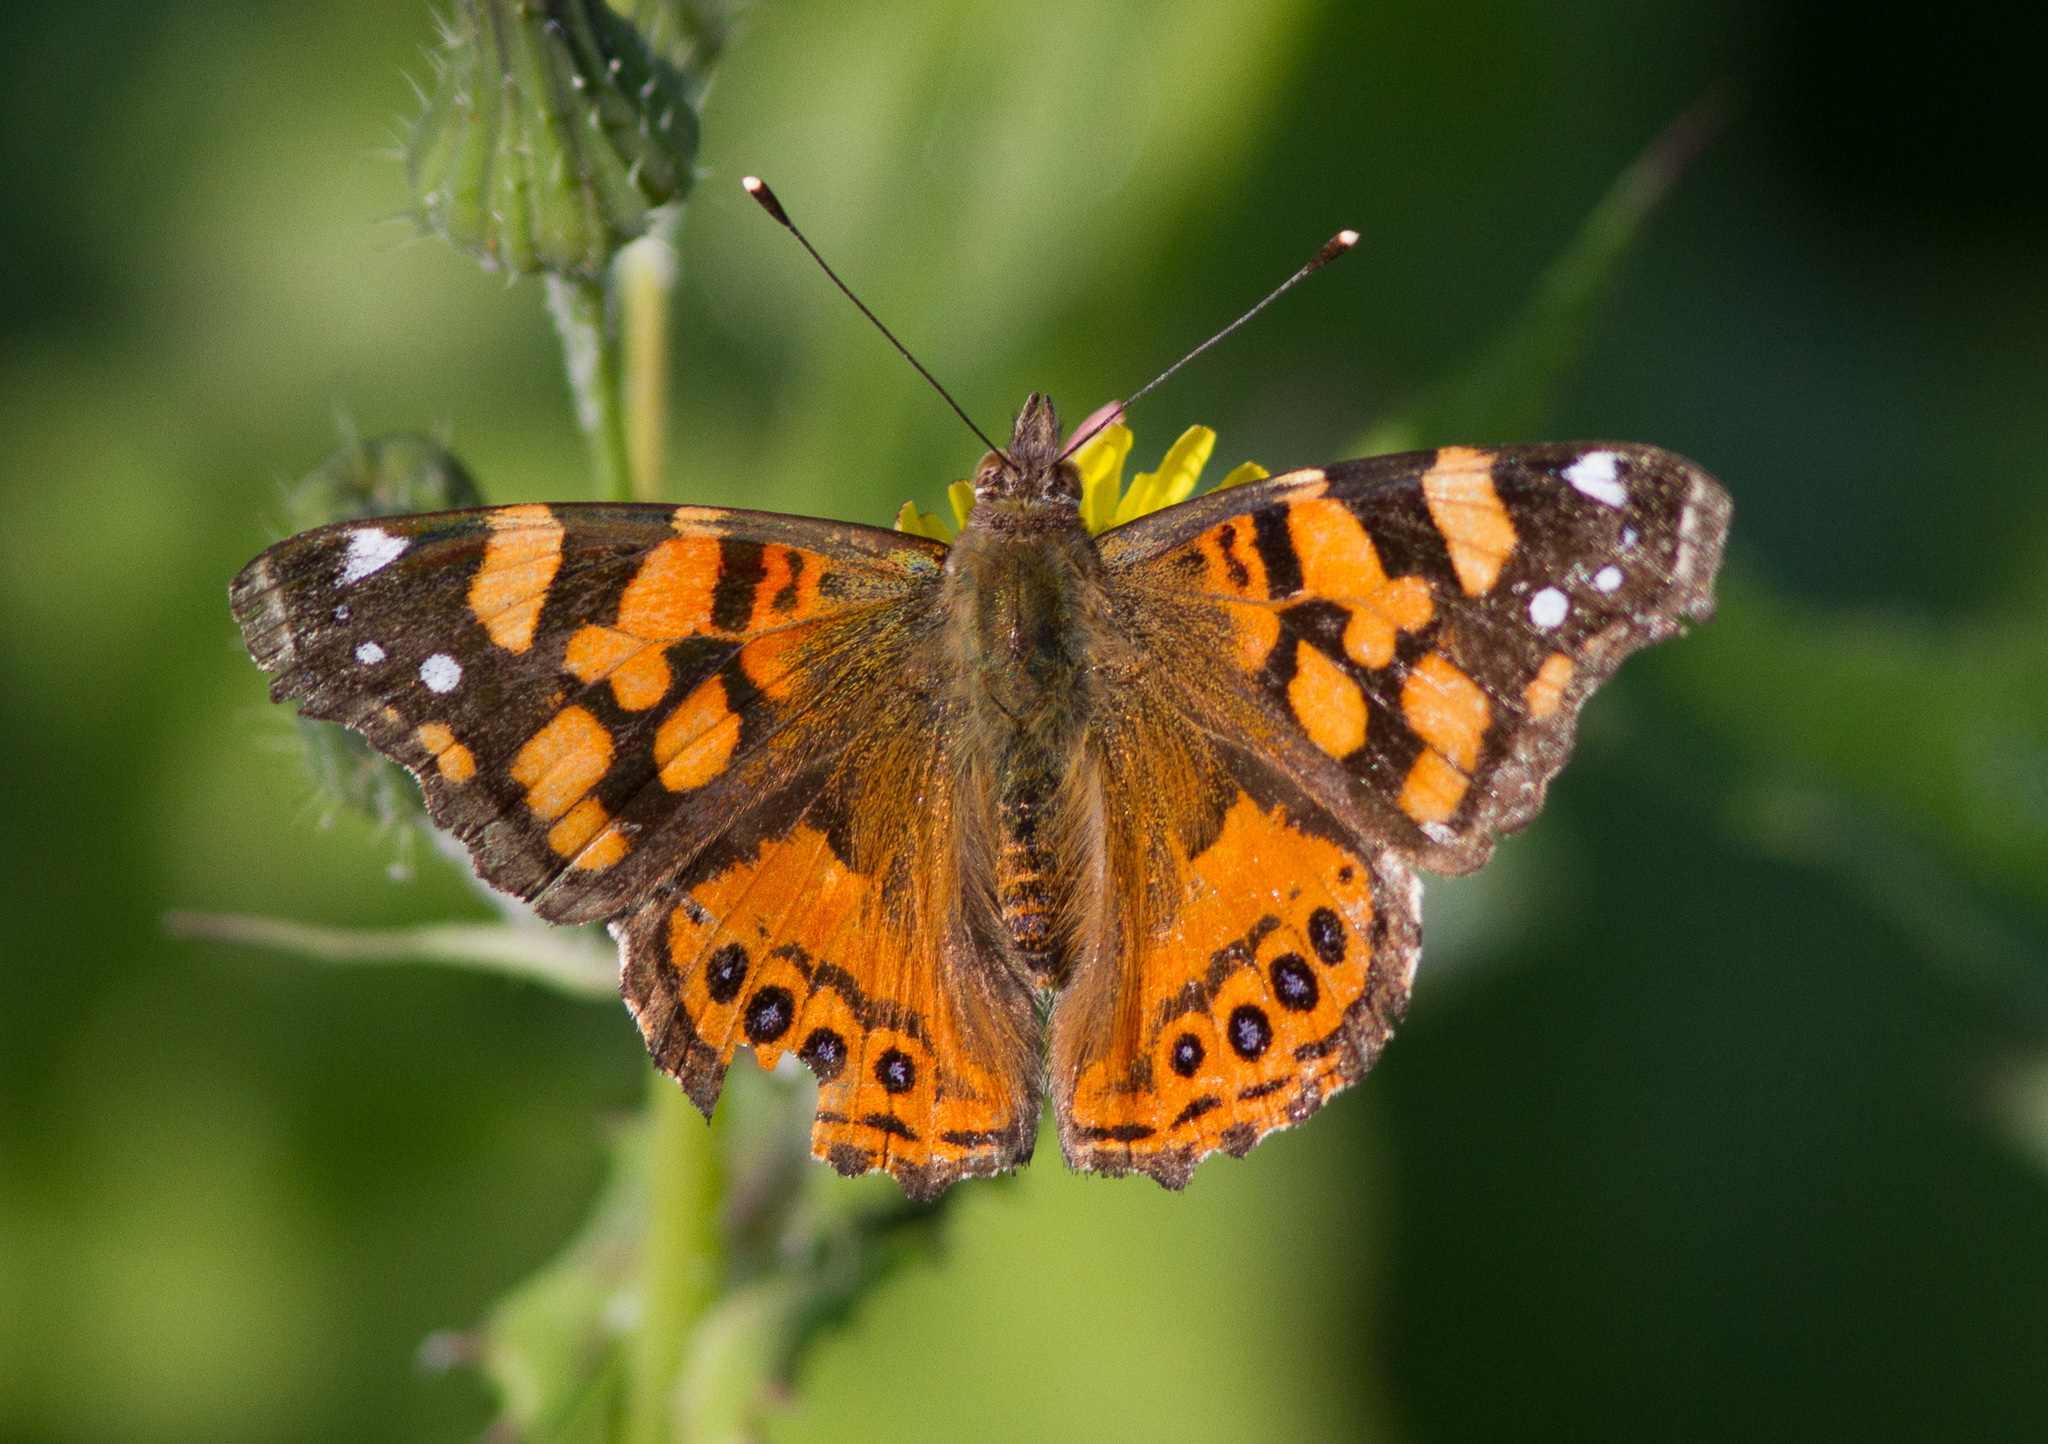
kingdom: Animalia
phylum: Arthropoda
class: Insecta
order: Lepidoptera
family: Nymphalidae
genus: Vanessa
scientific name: Vanessa annabella
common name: West coast lady
